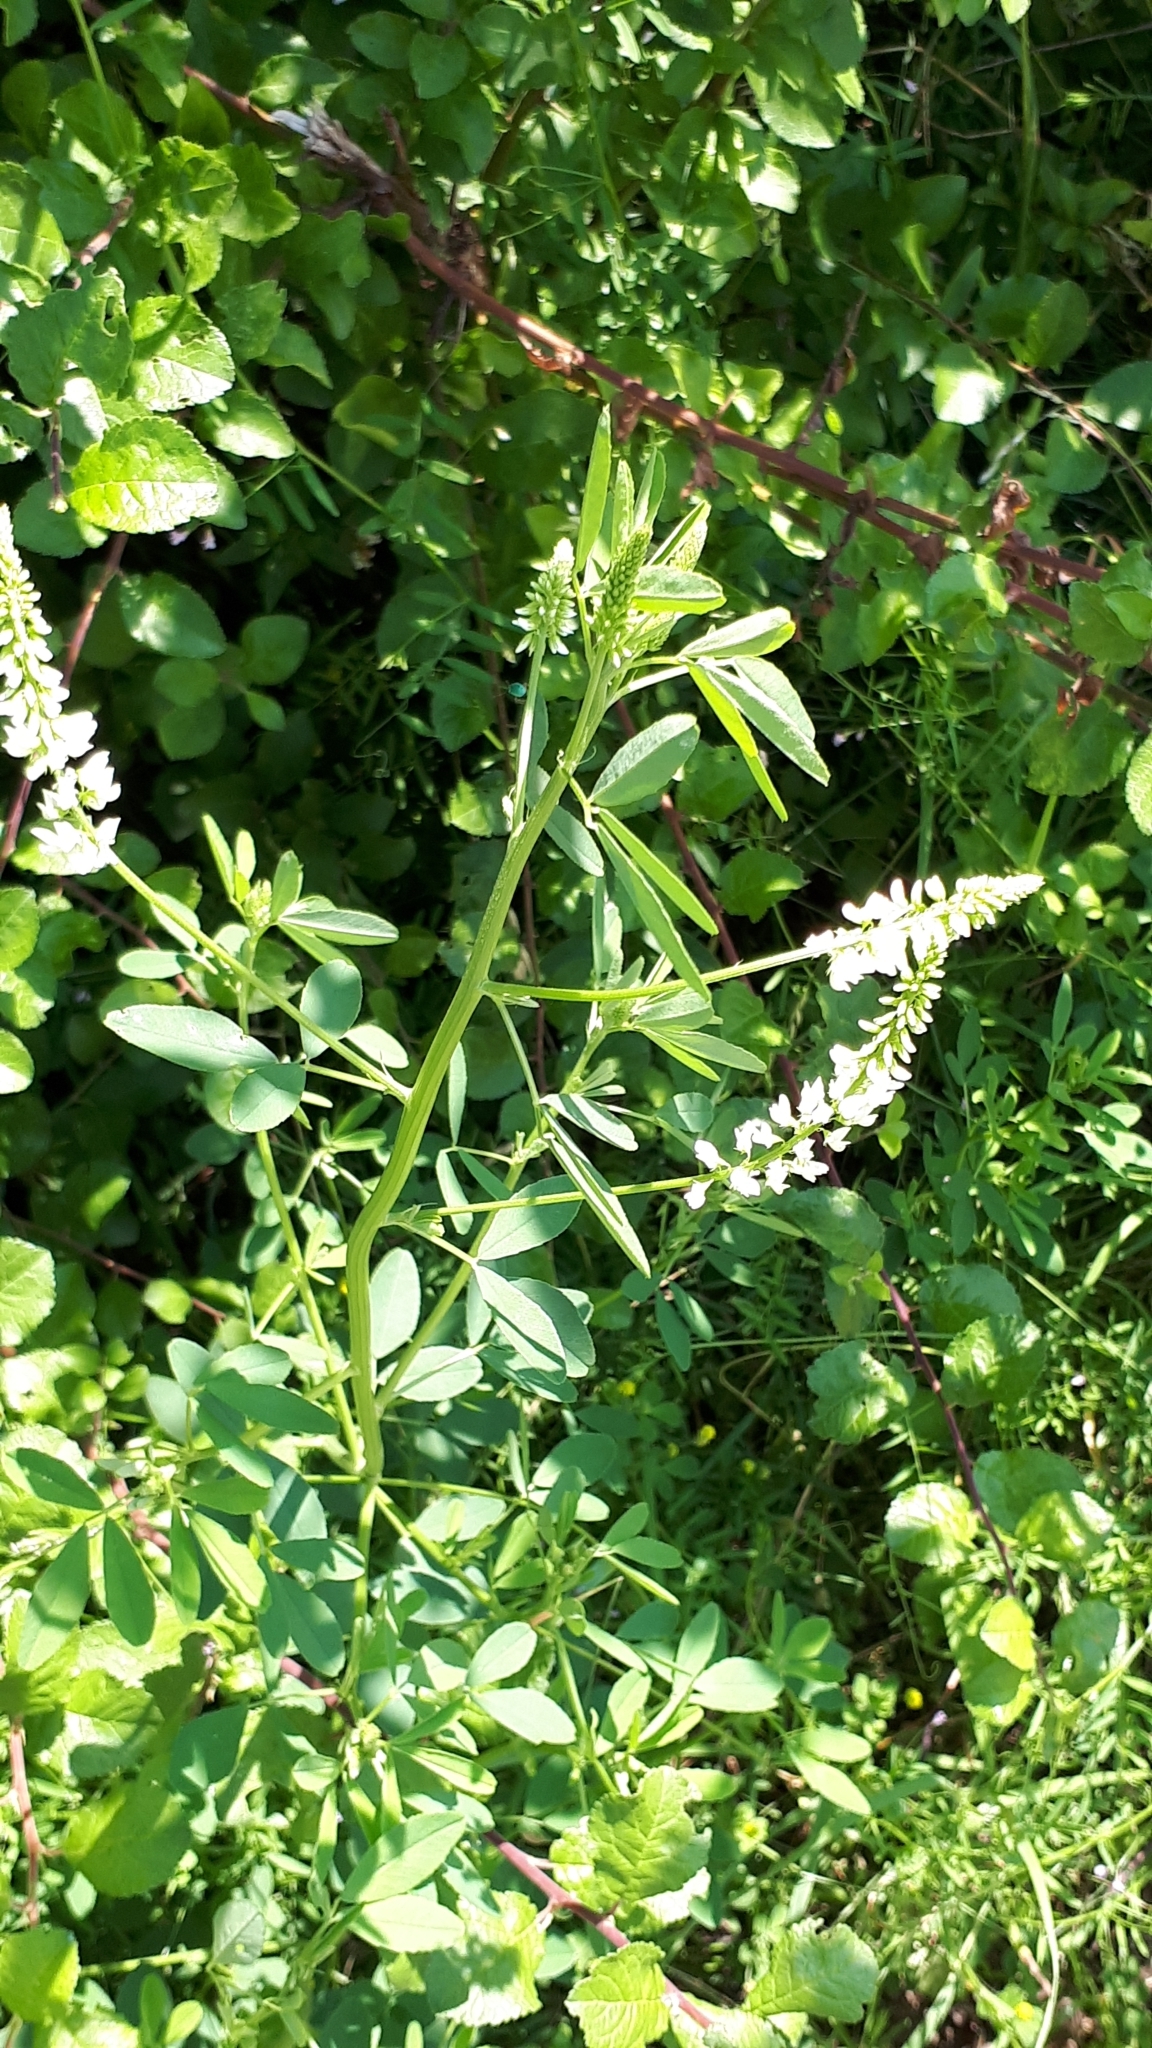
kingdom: Plantae
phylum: Tracheophyta
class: Magnoliopsida
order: Fabales
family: Fabaceae
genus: Melilotus
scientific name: Melilotus albus
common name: White melilot
